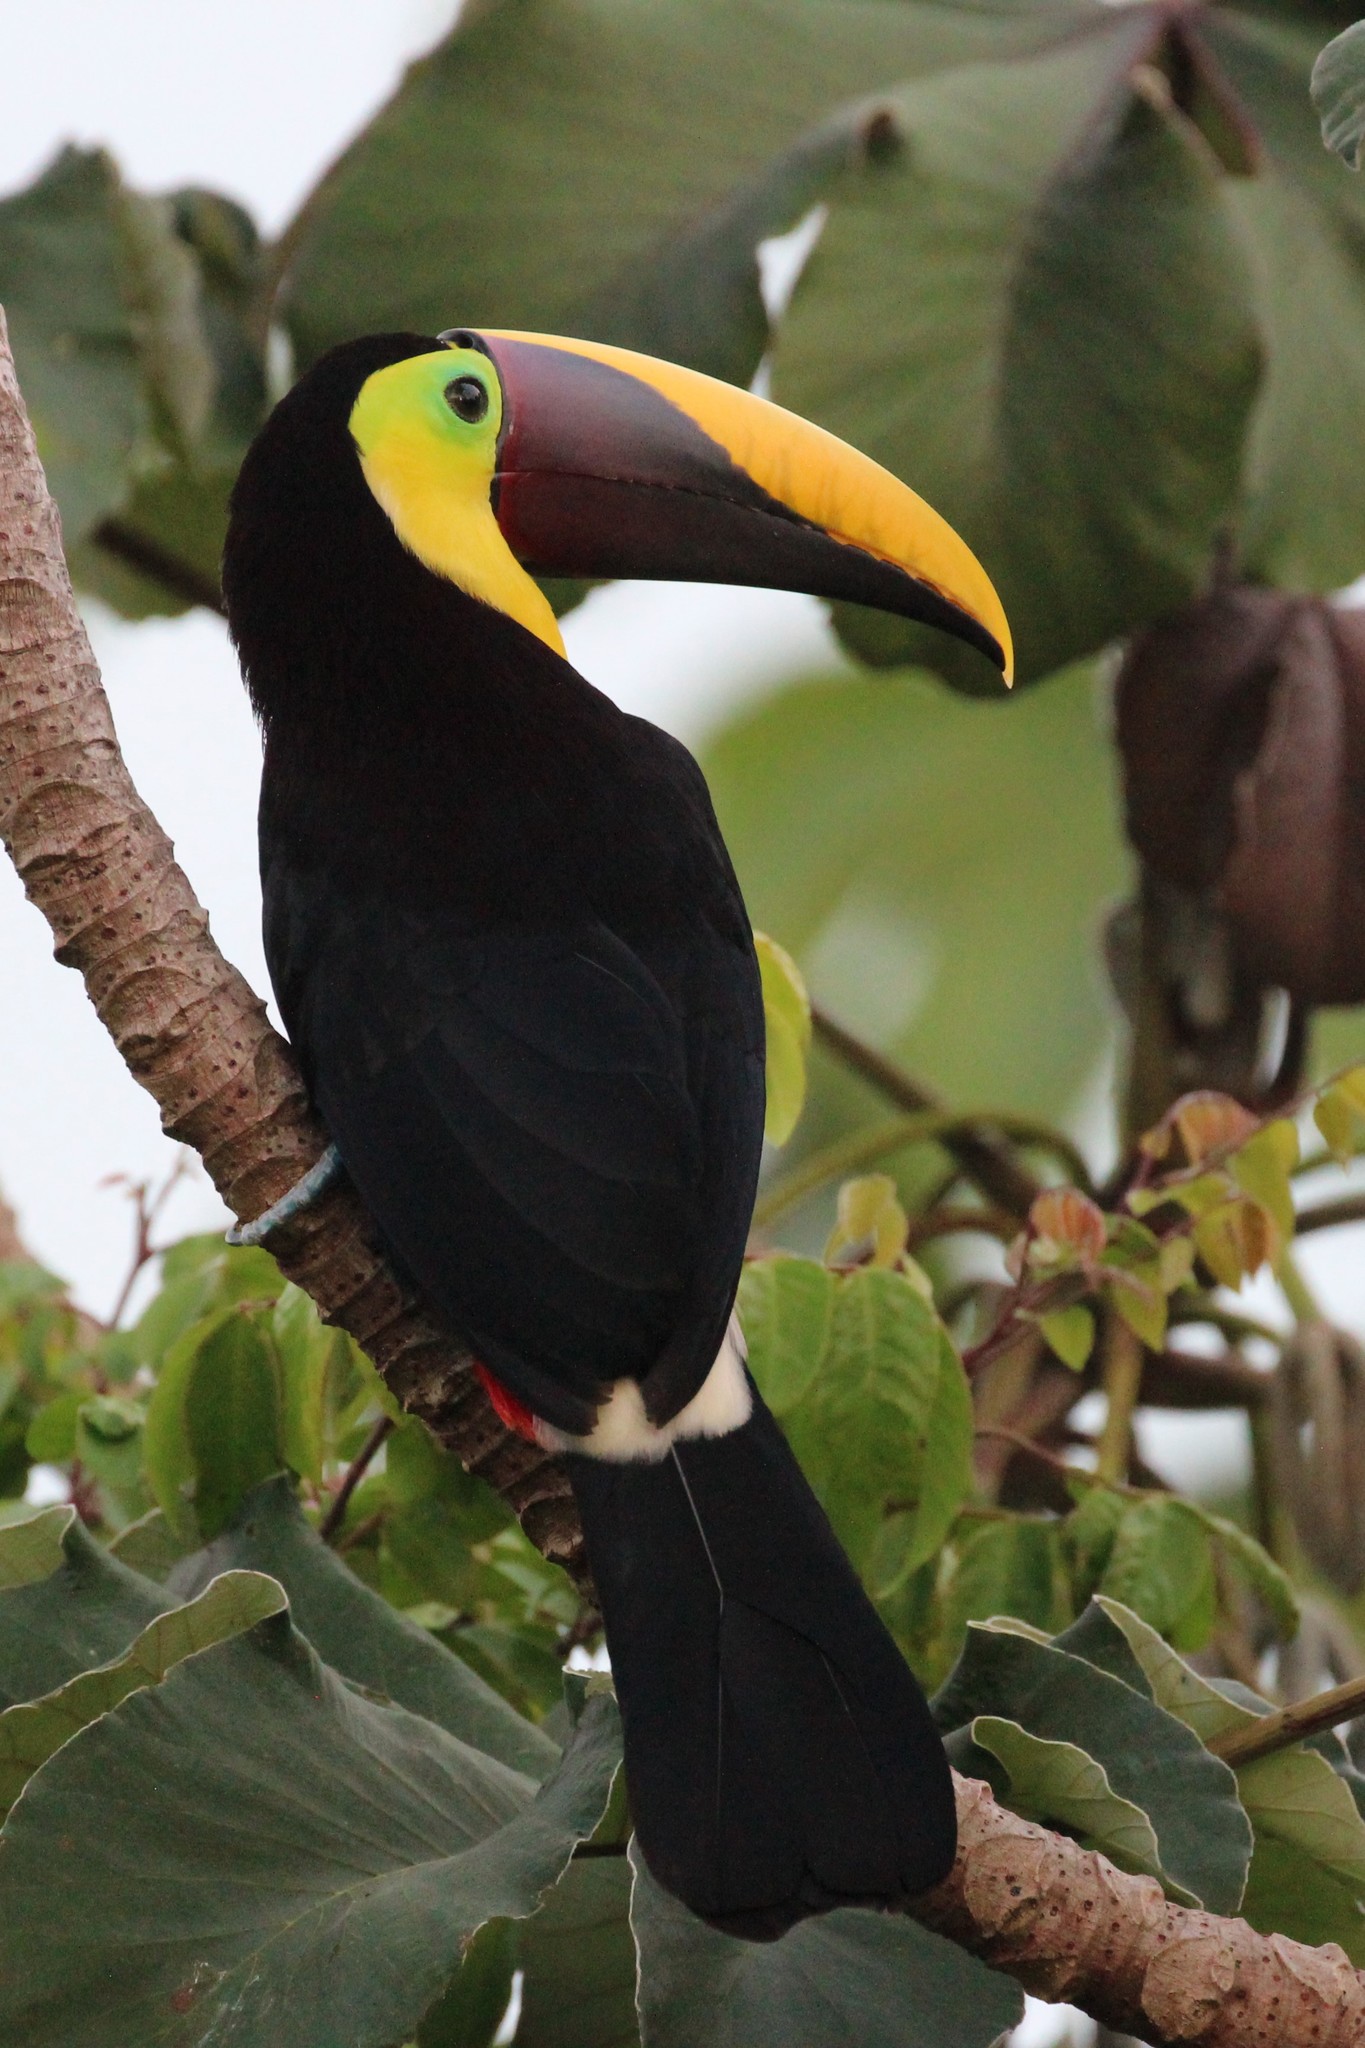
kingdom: Animalia
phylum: Chordata
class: Aves
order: Piciformes
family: Ramphastidae
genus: Ramphastos
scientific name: Ramphastos ambiguus
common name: Yellow-throated toucan
